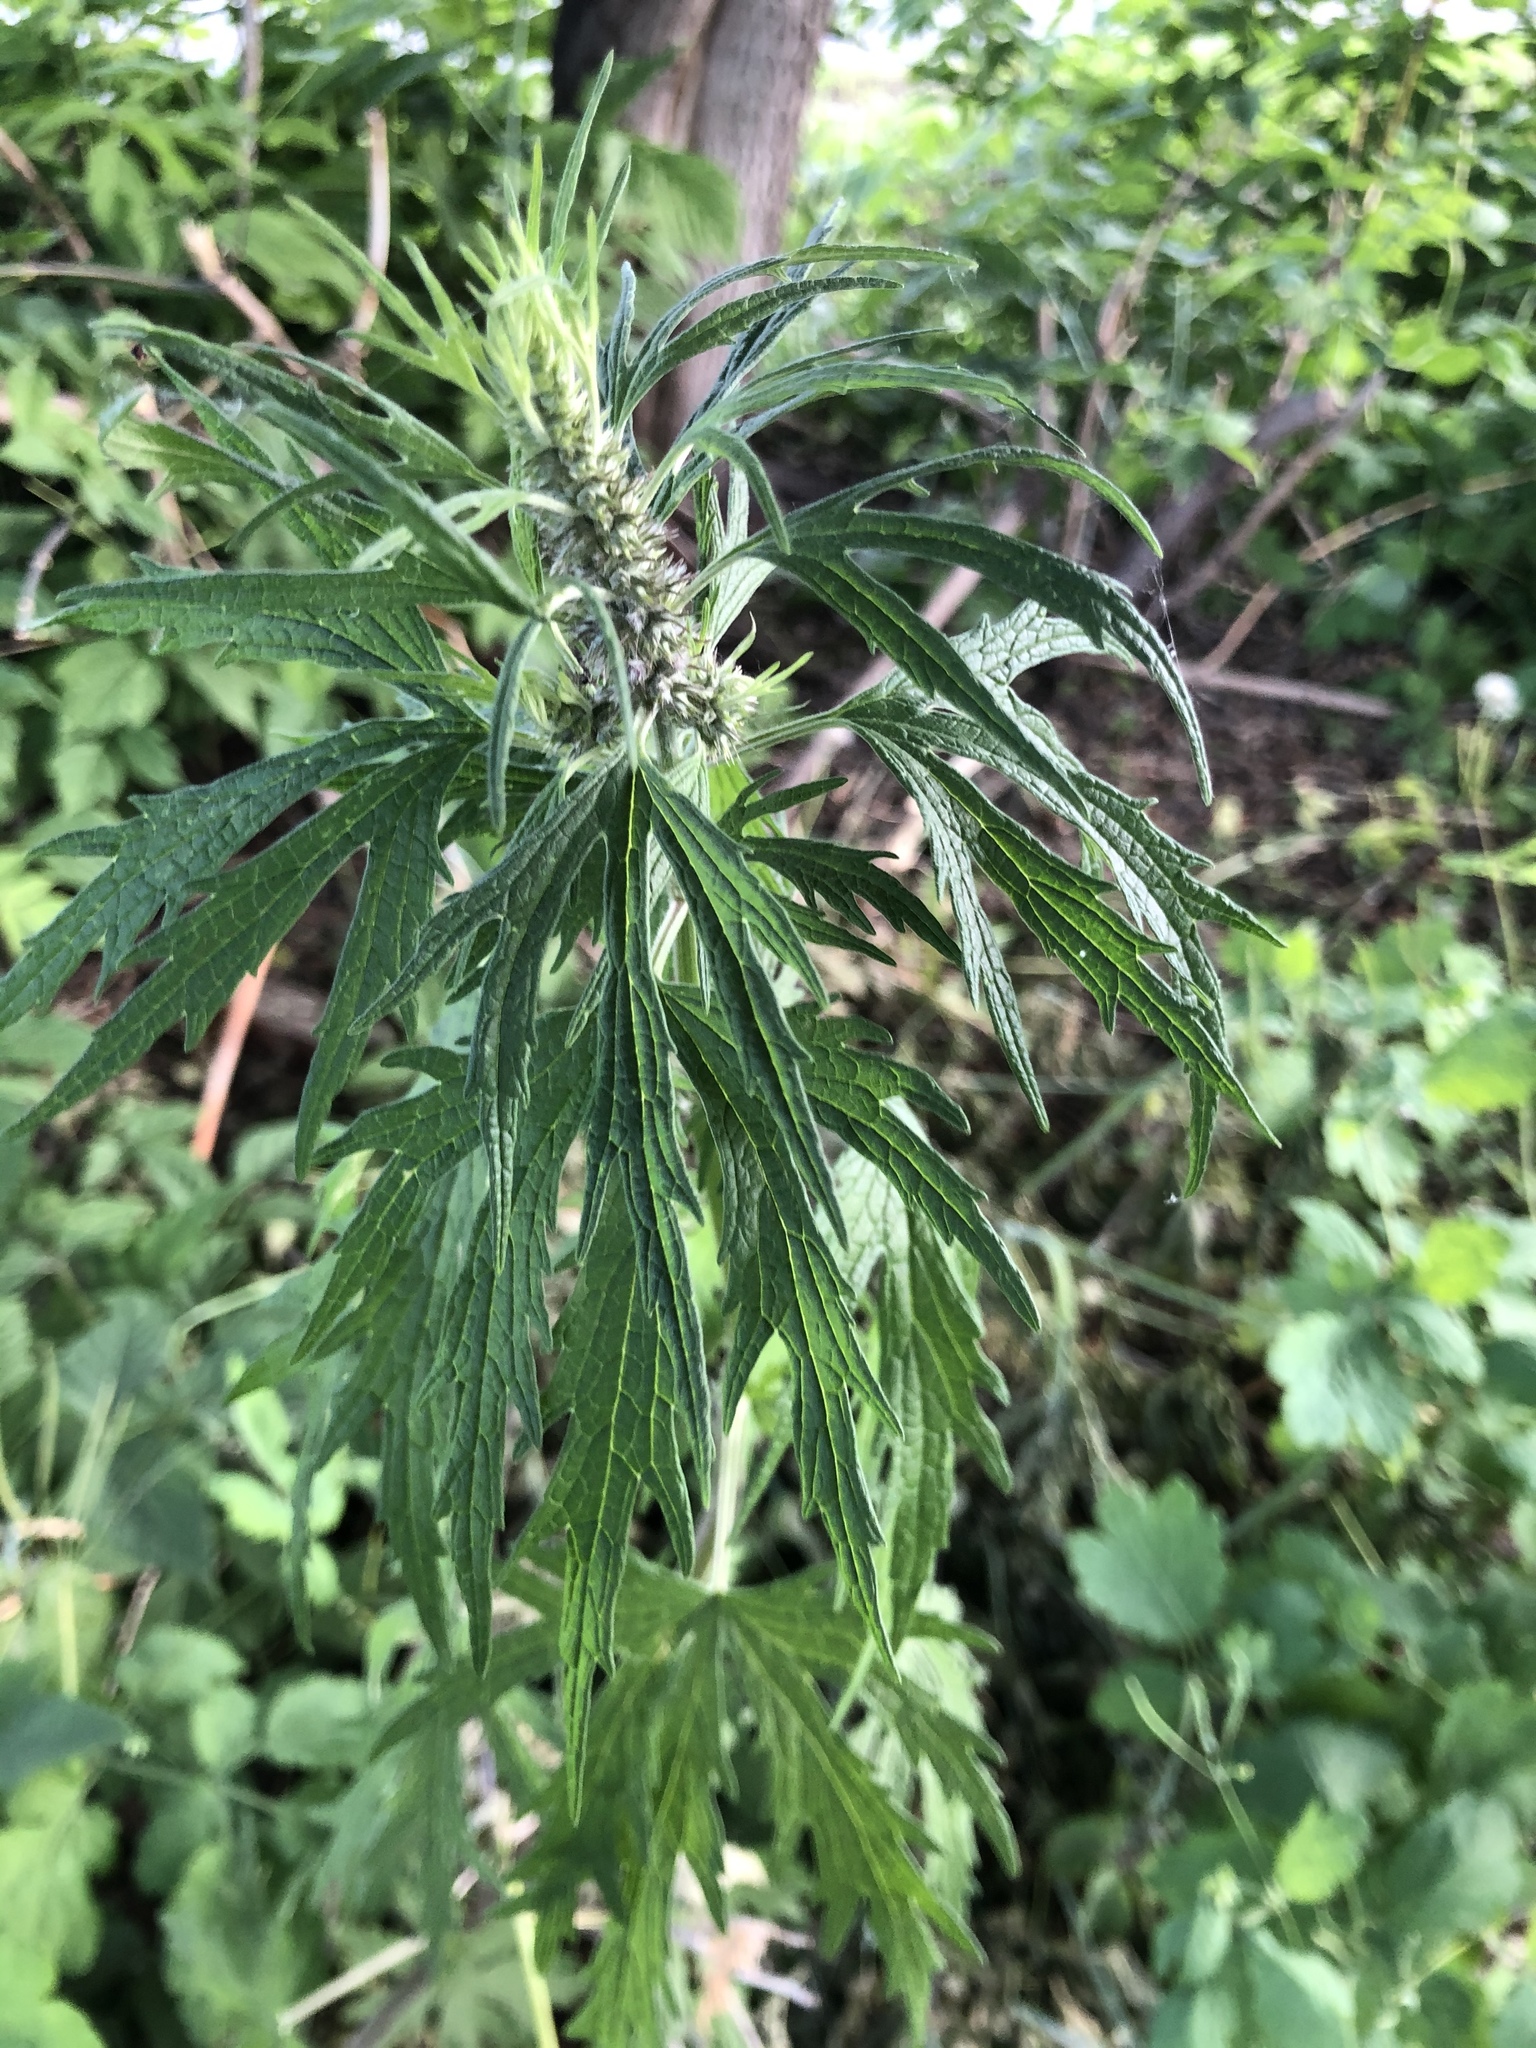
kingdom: Plantae
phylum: Tracheophyta
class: Magnoliopsida
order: Lamiales
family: Lamiaceae
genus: Leonurus
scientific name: Leonurus quinquelobatus
